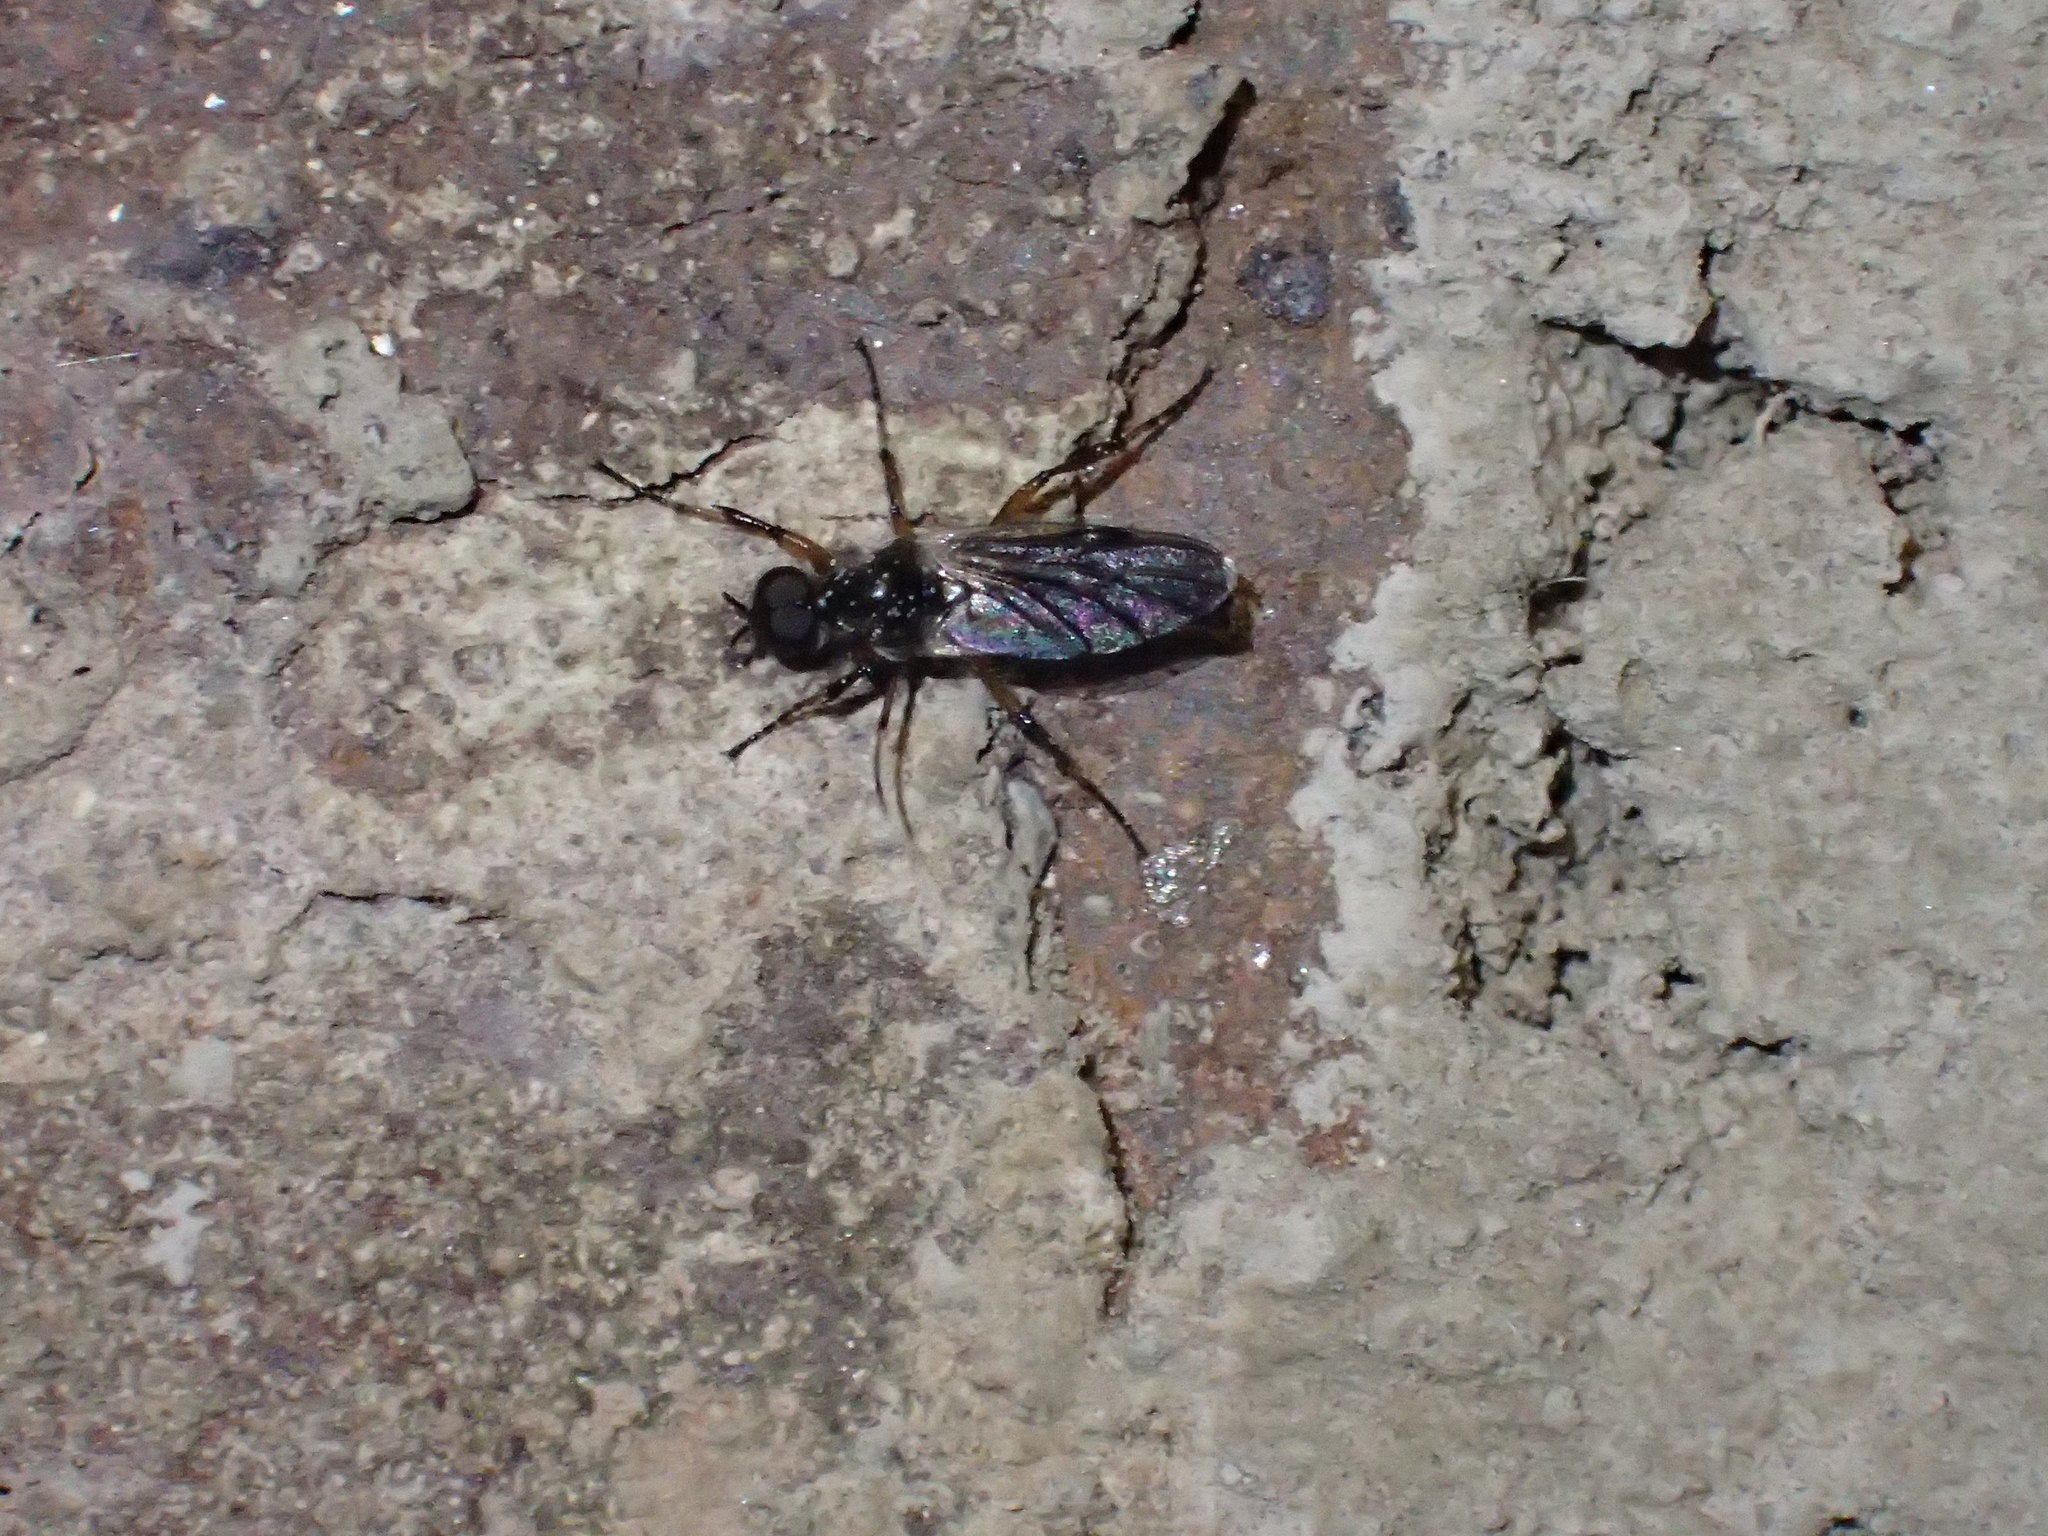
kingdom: Animalia
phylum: Arthropoda
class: Insecta
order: Diptera
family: Bibionidae
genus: Bibio
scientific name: Bibio
